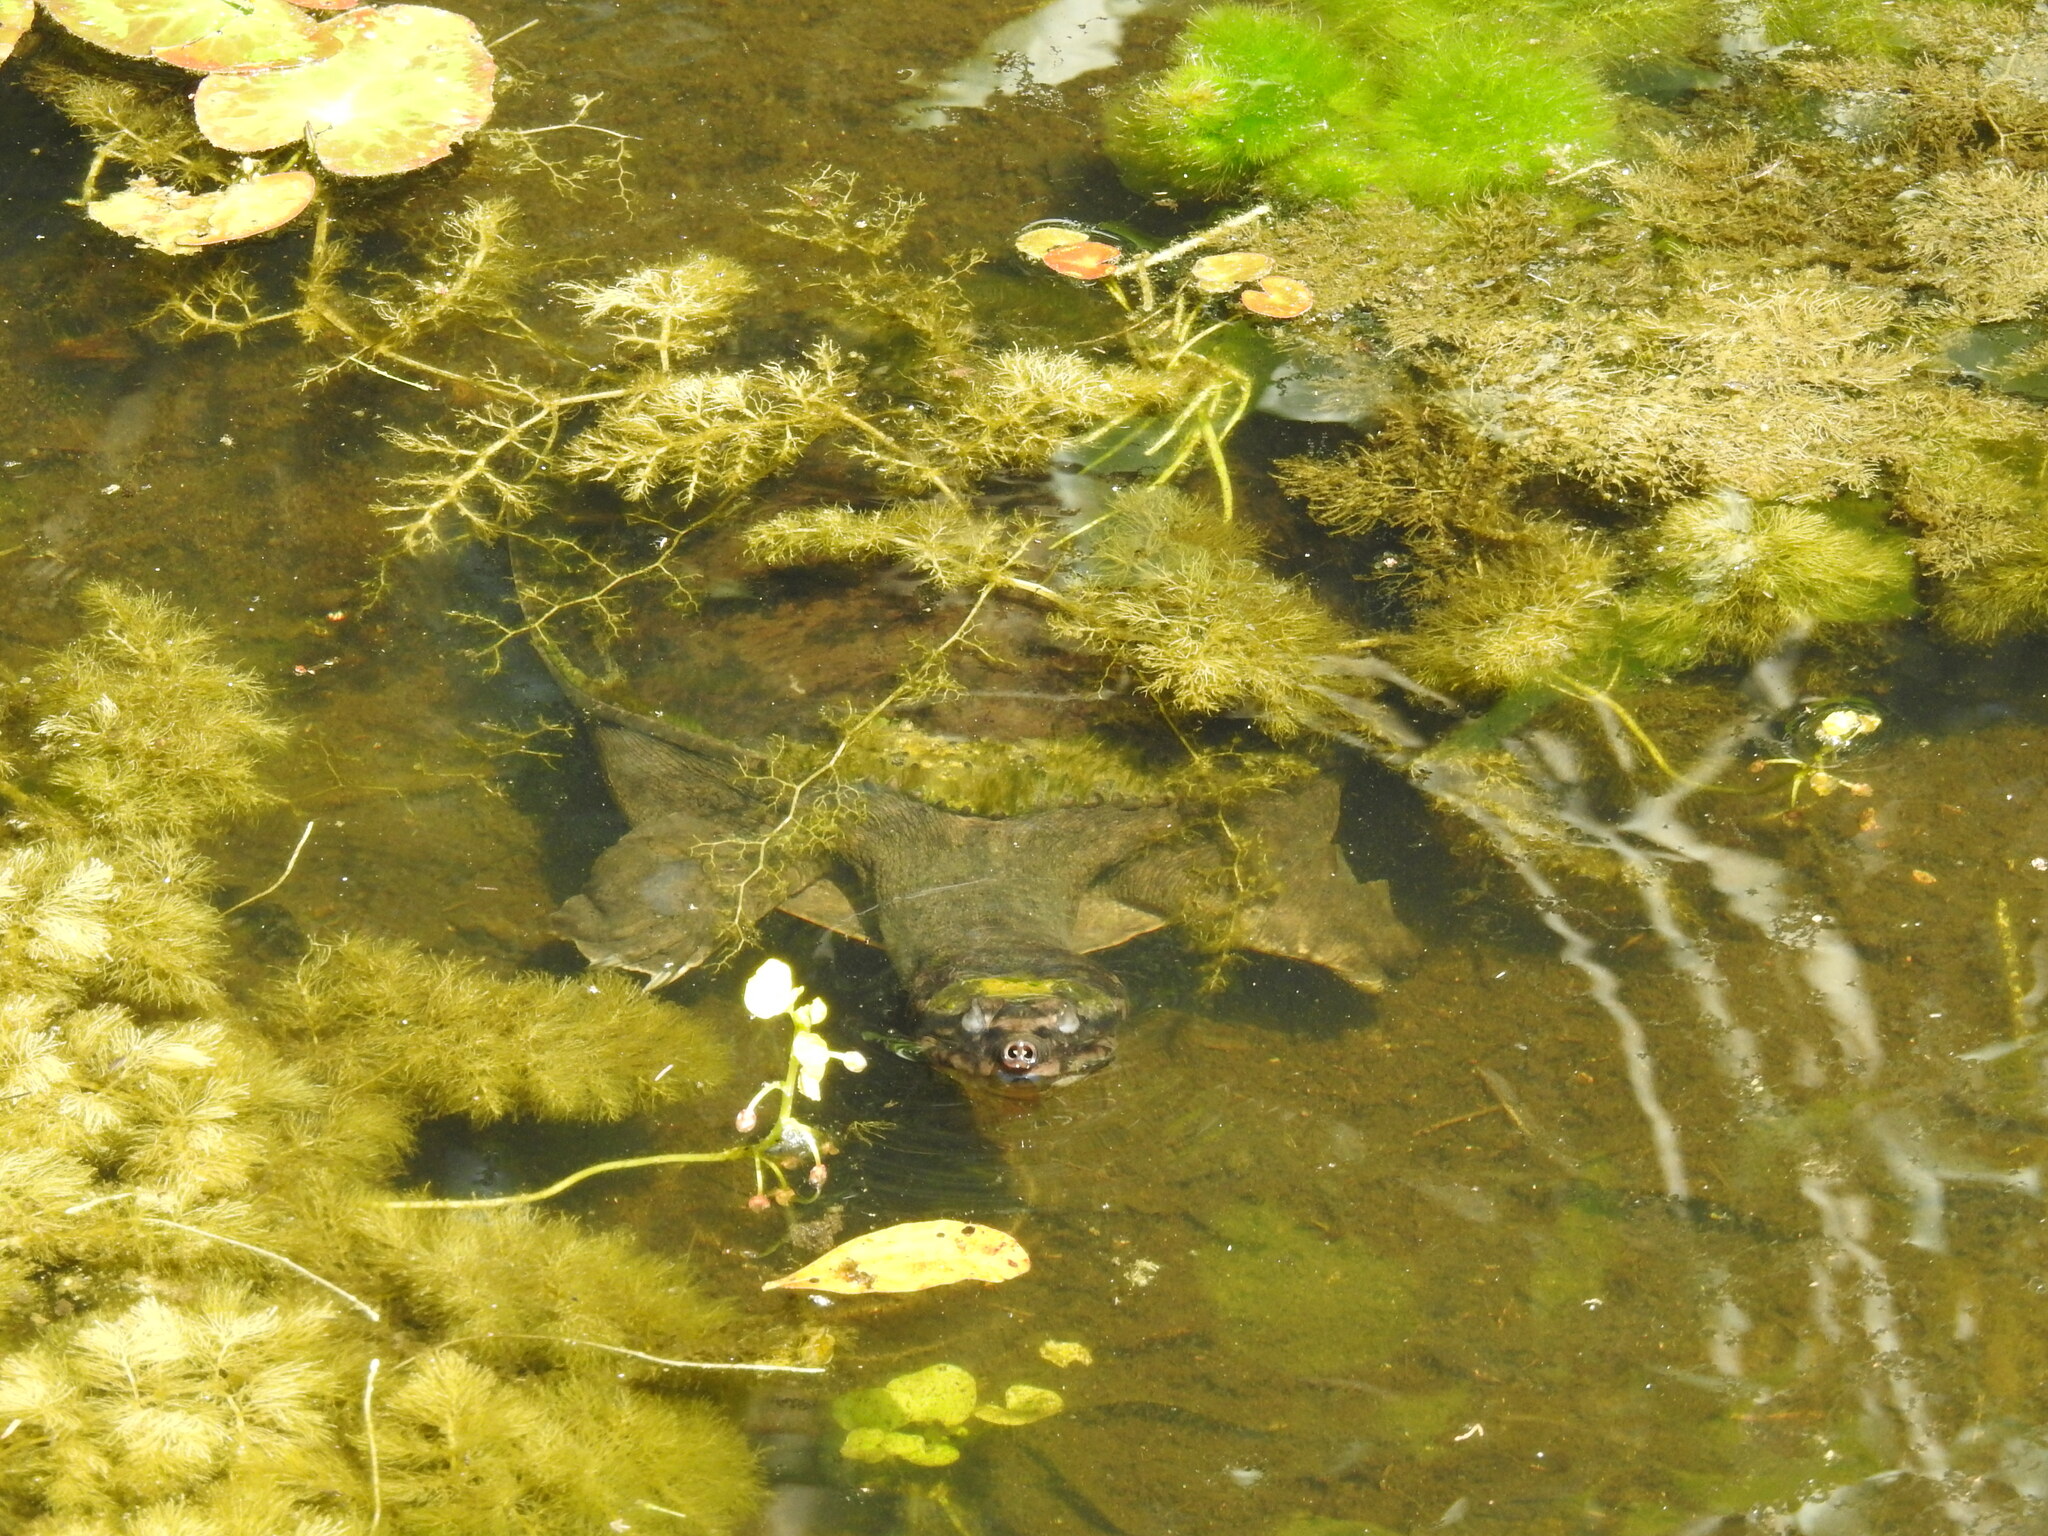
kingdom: Animalia
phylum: Chordata
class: Testudines
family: Trionychidae
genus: Apalone
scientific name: Apalone ferox
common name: Florida softshell turtle
